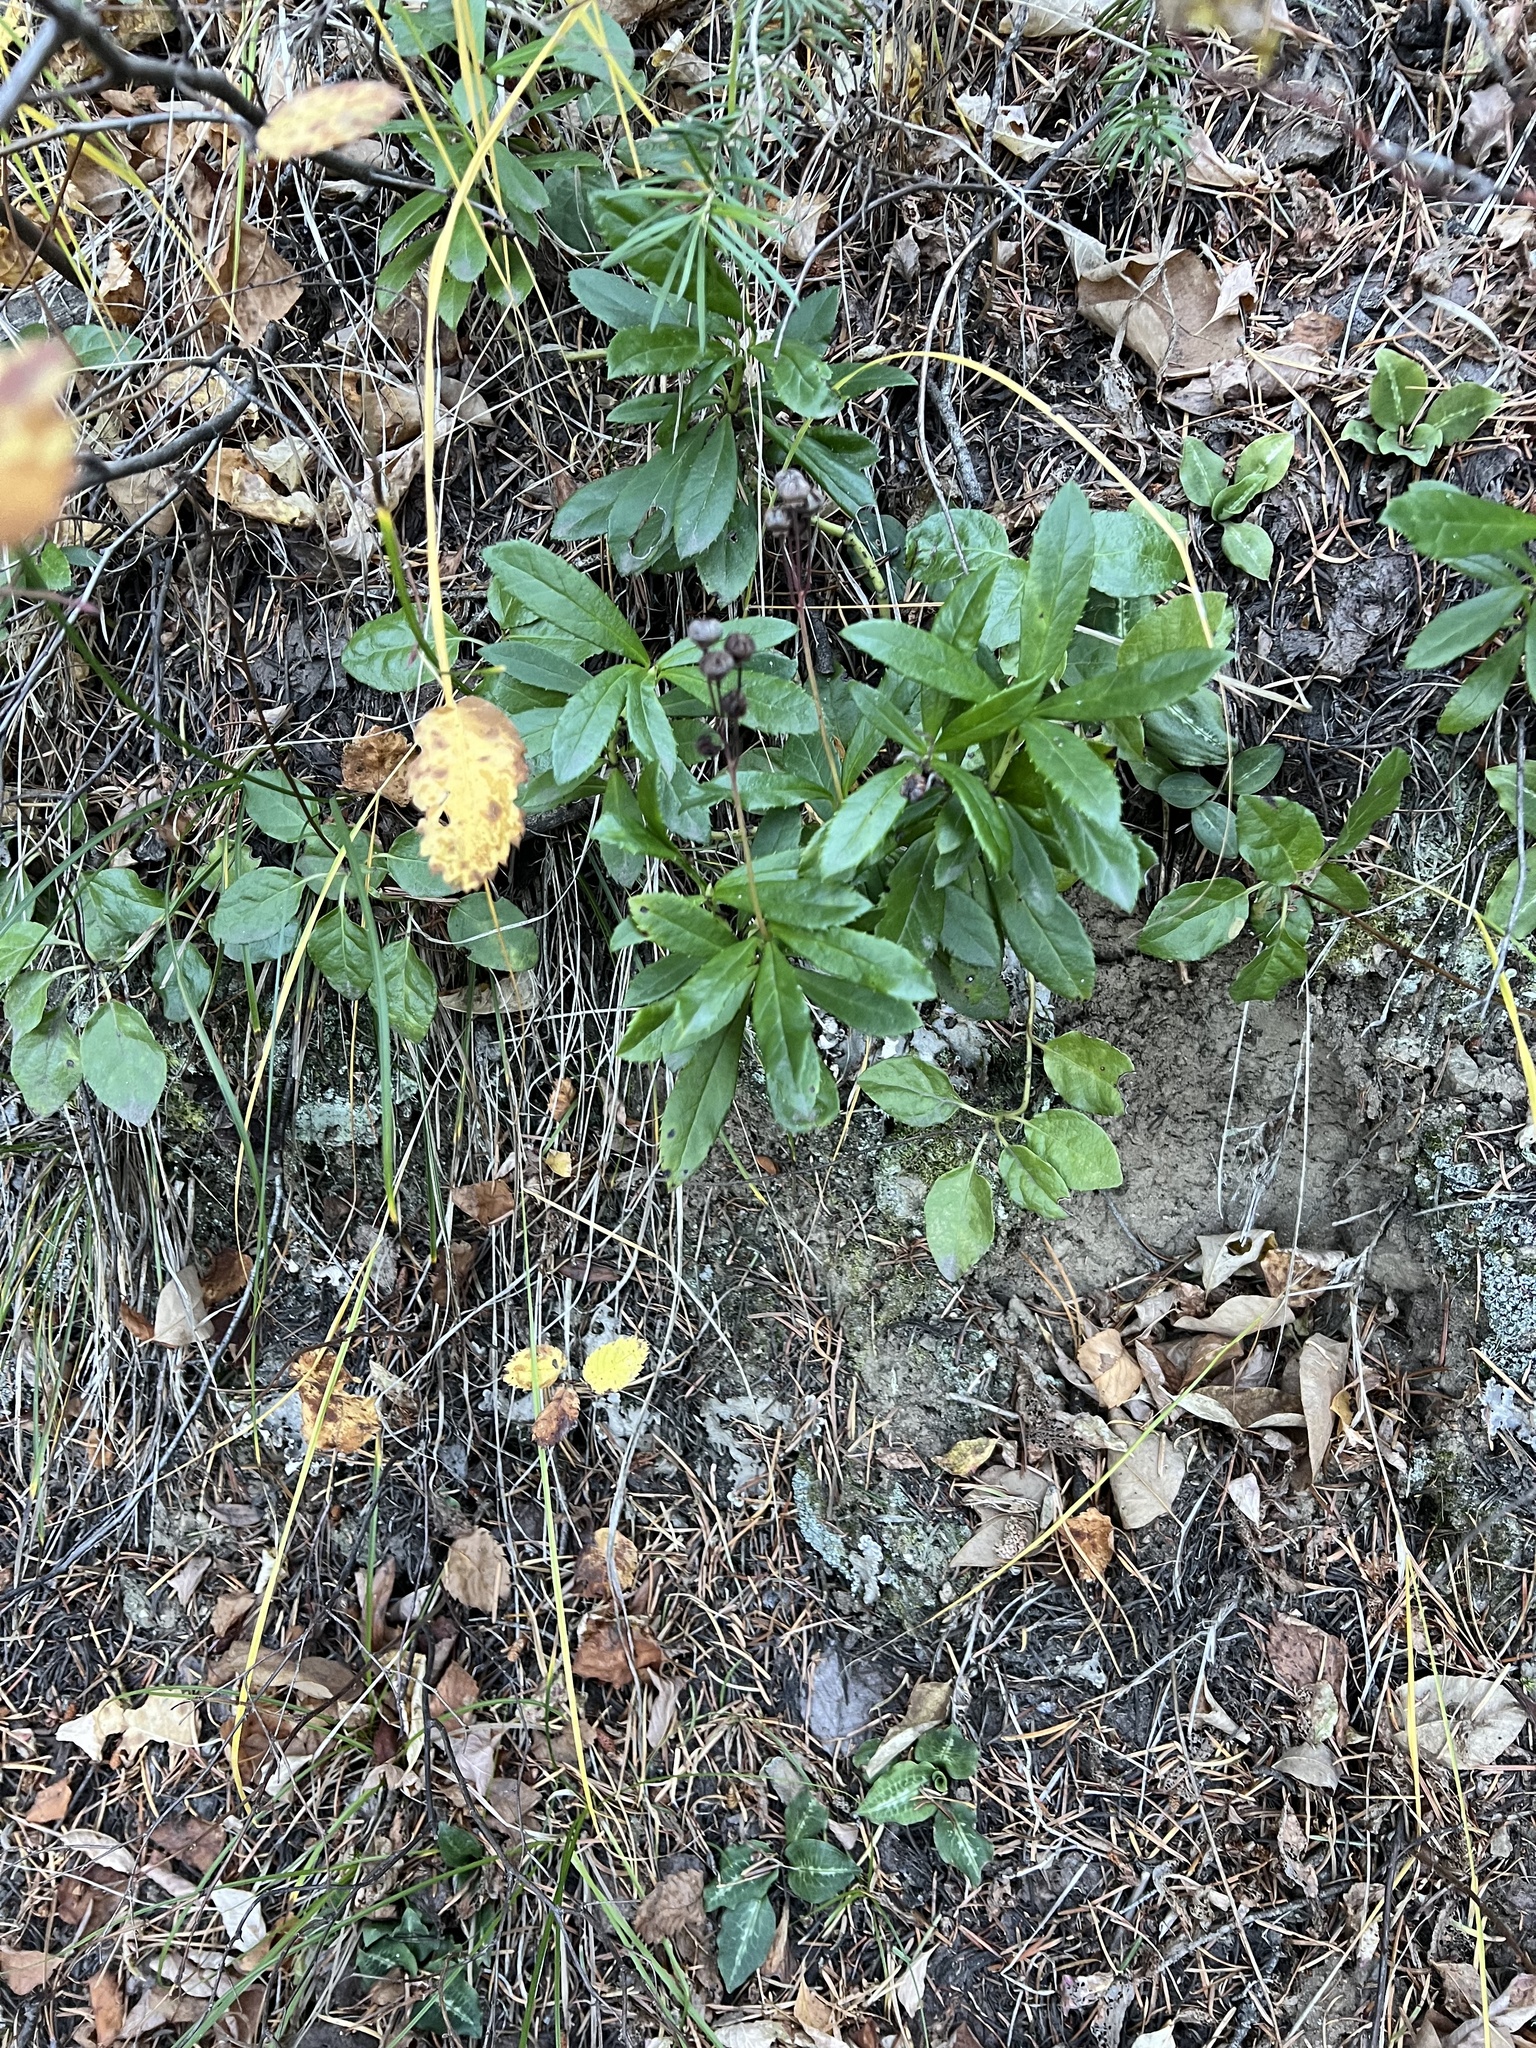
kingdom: Plantae
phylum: Tracheophyta
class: Magnoliopsida
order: Ericales
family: Ericaceae
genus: Chimaphila
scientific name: Chimaphila umbellata
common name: Pipsissewa
